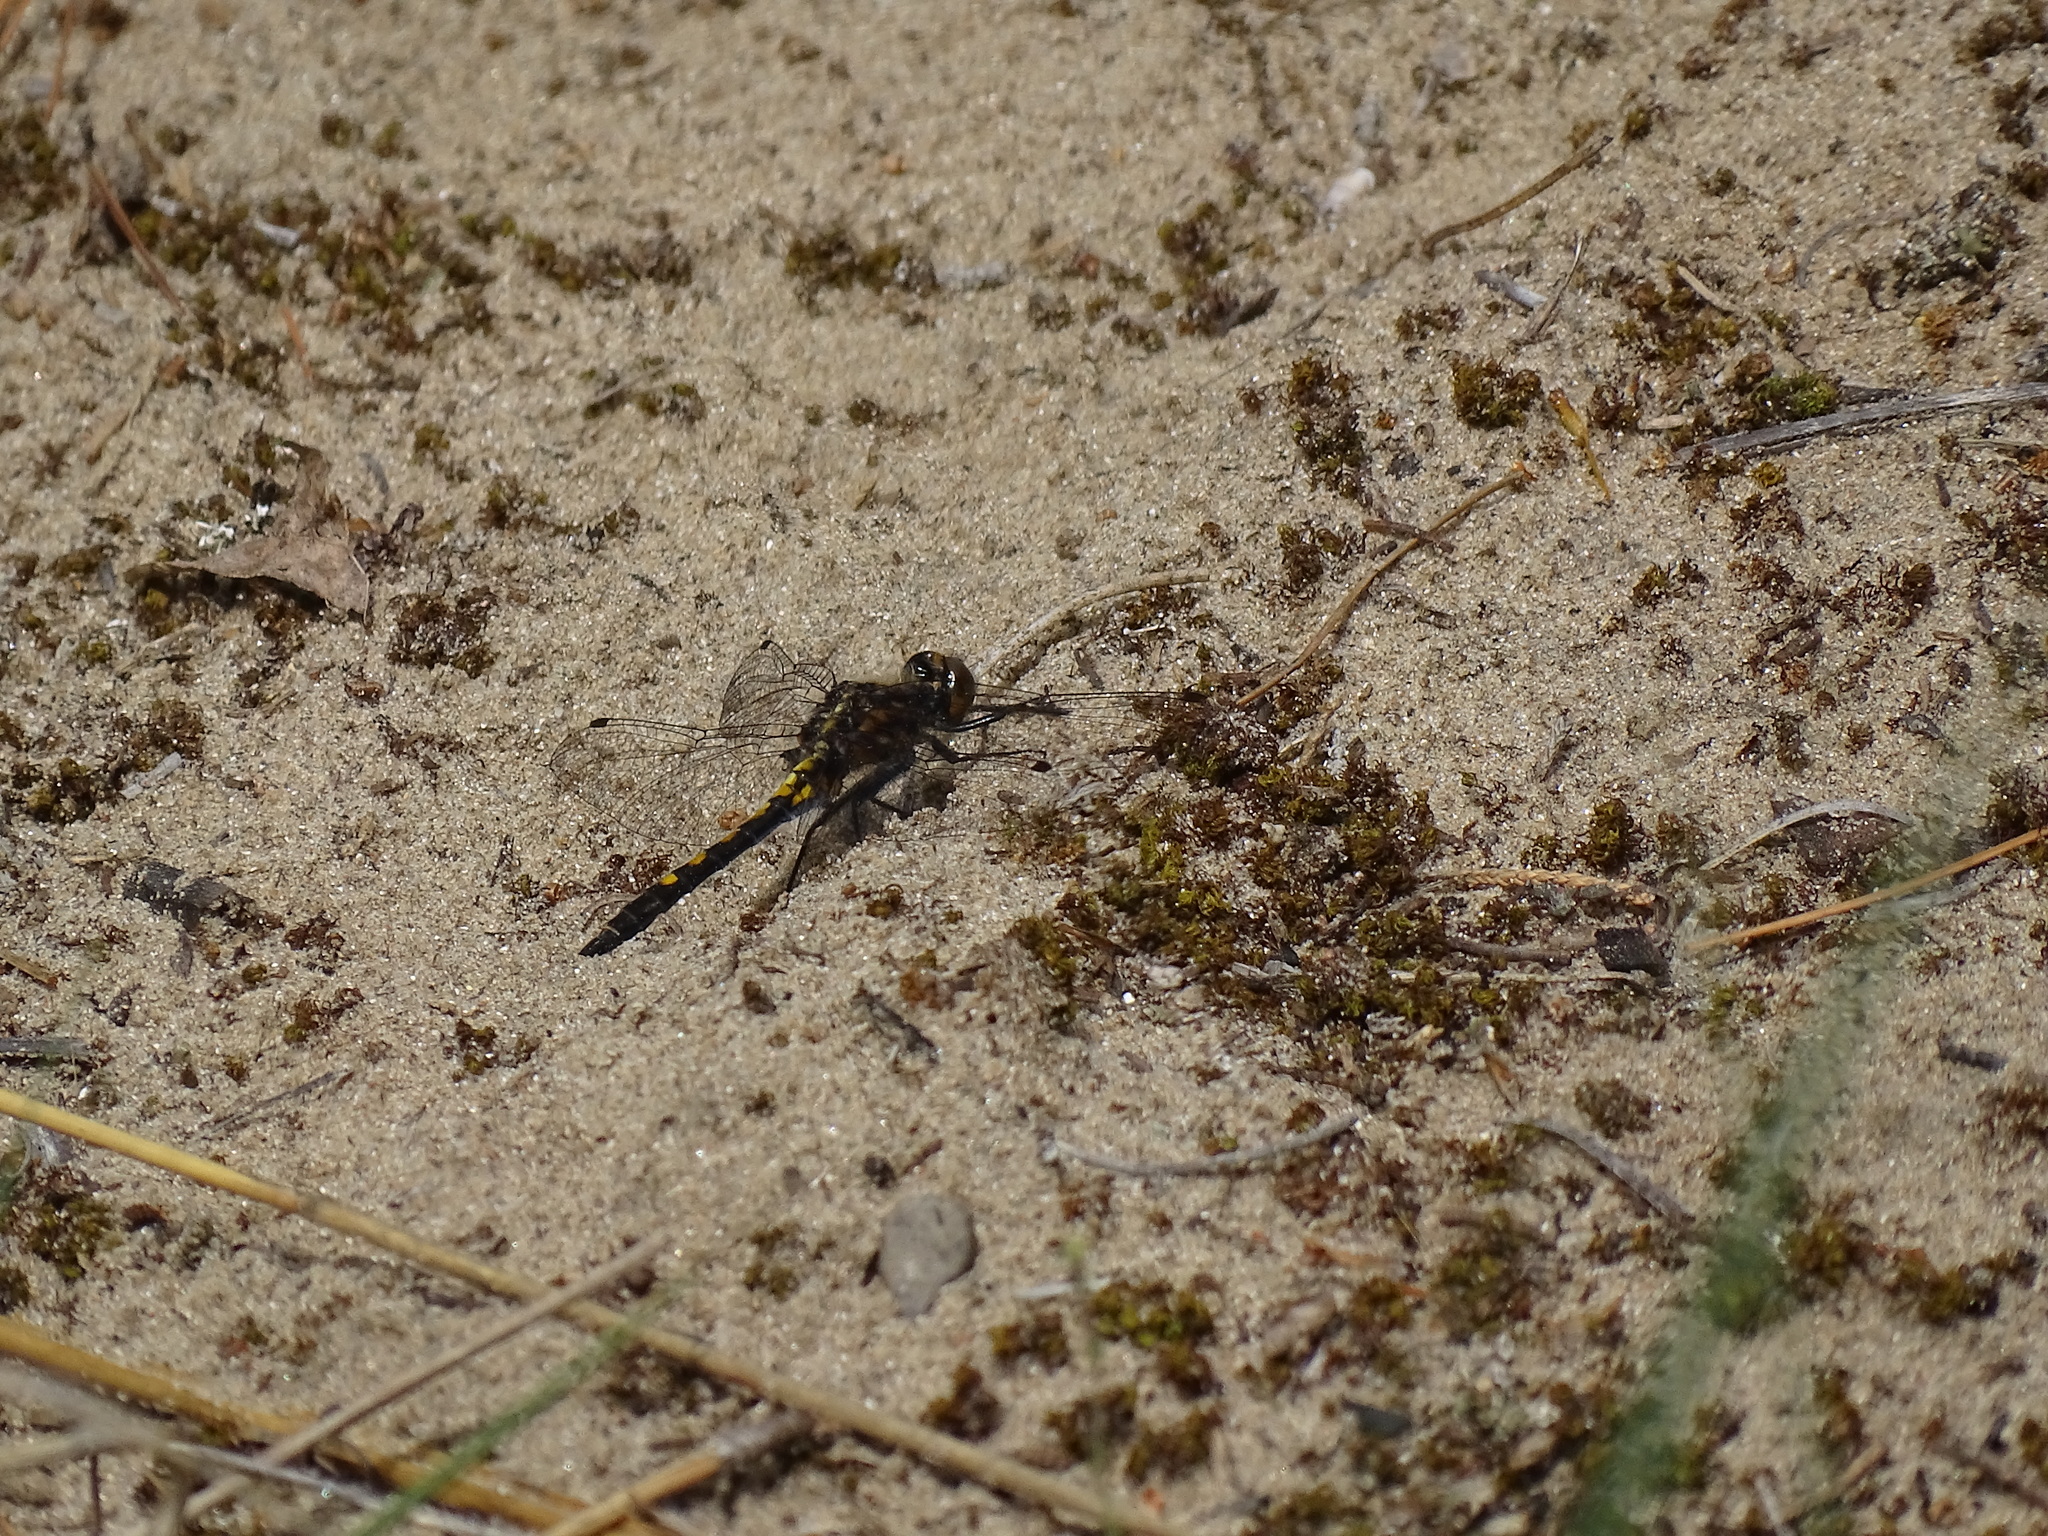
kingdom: Animalia
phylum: Arthropoda
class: Insecta
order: Odonata
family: Libellulidae
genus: Leucorrhinia
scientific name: Leucorrhinia intacta
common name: Dot-tailed whiteface
